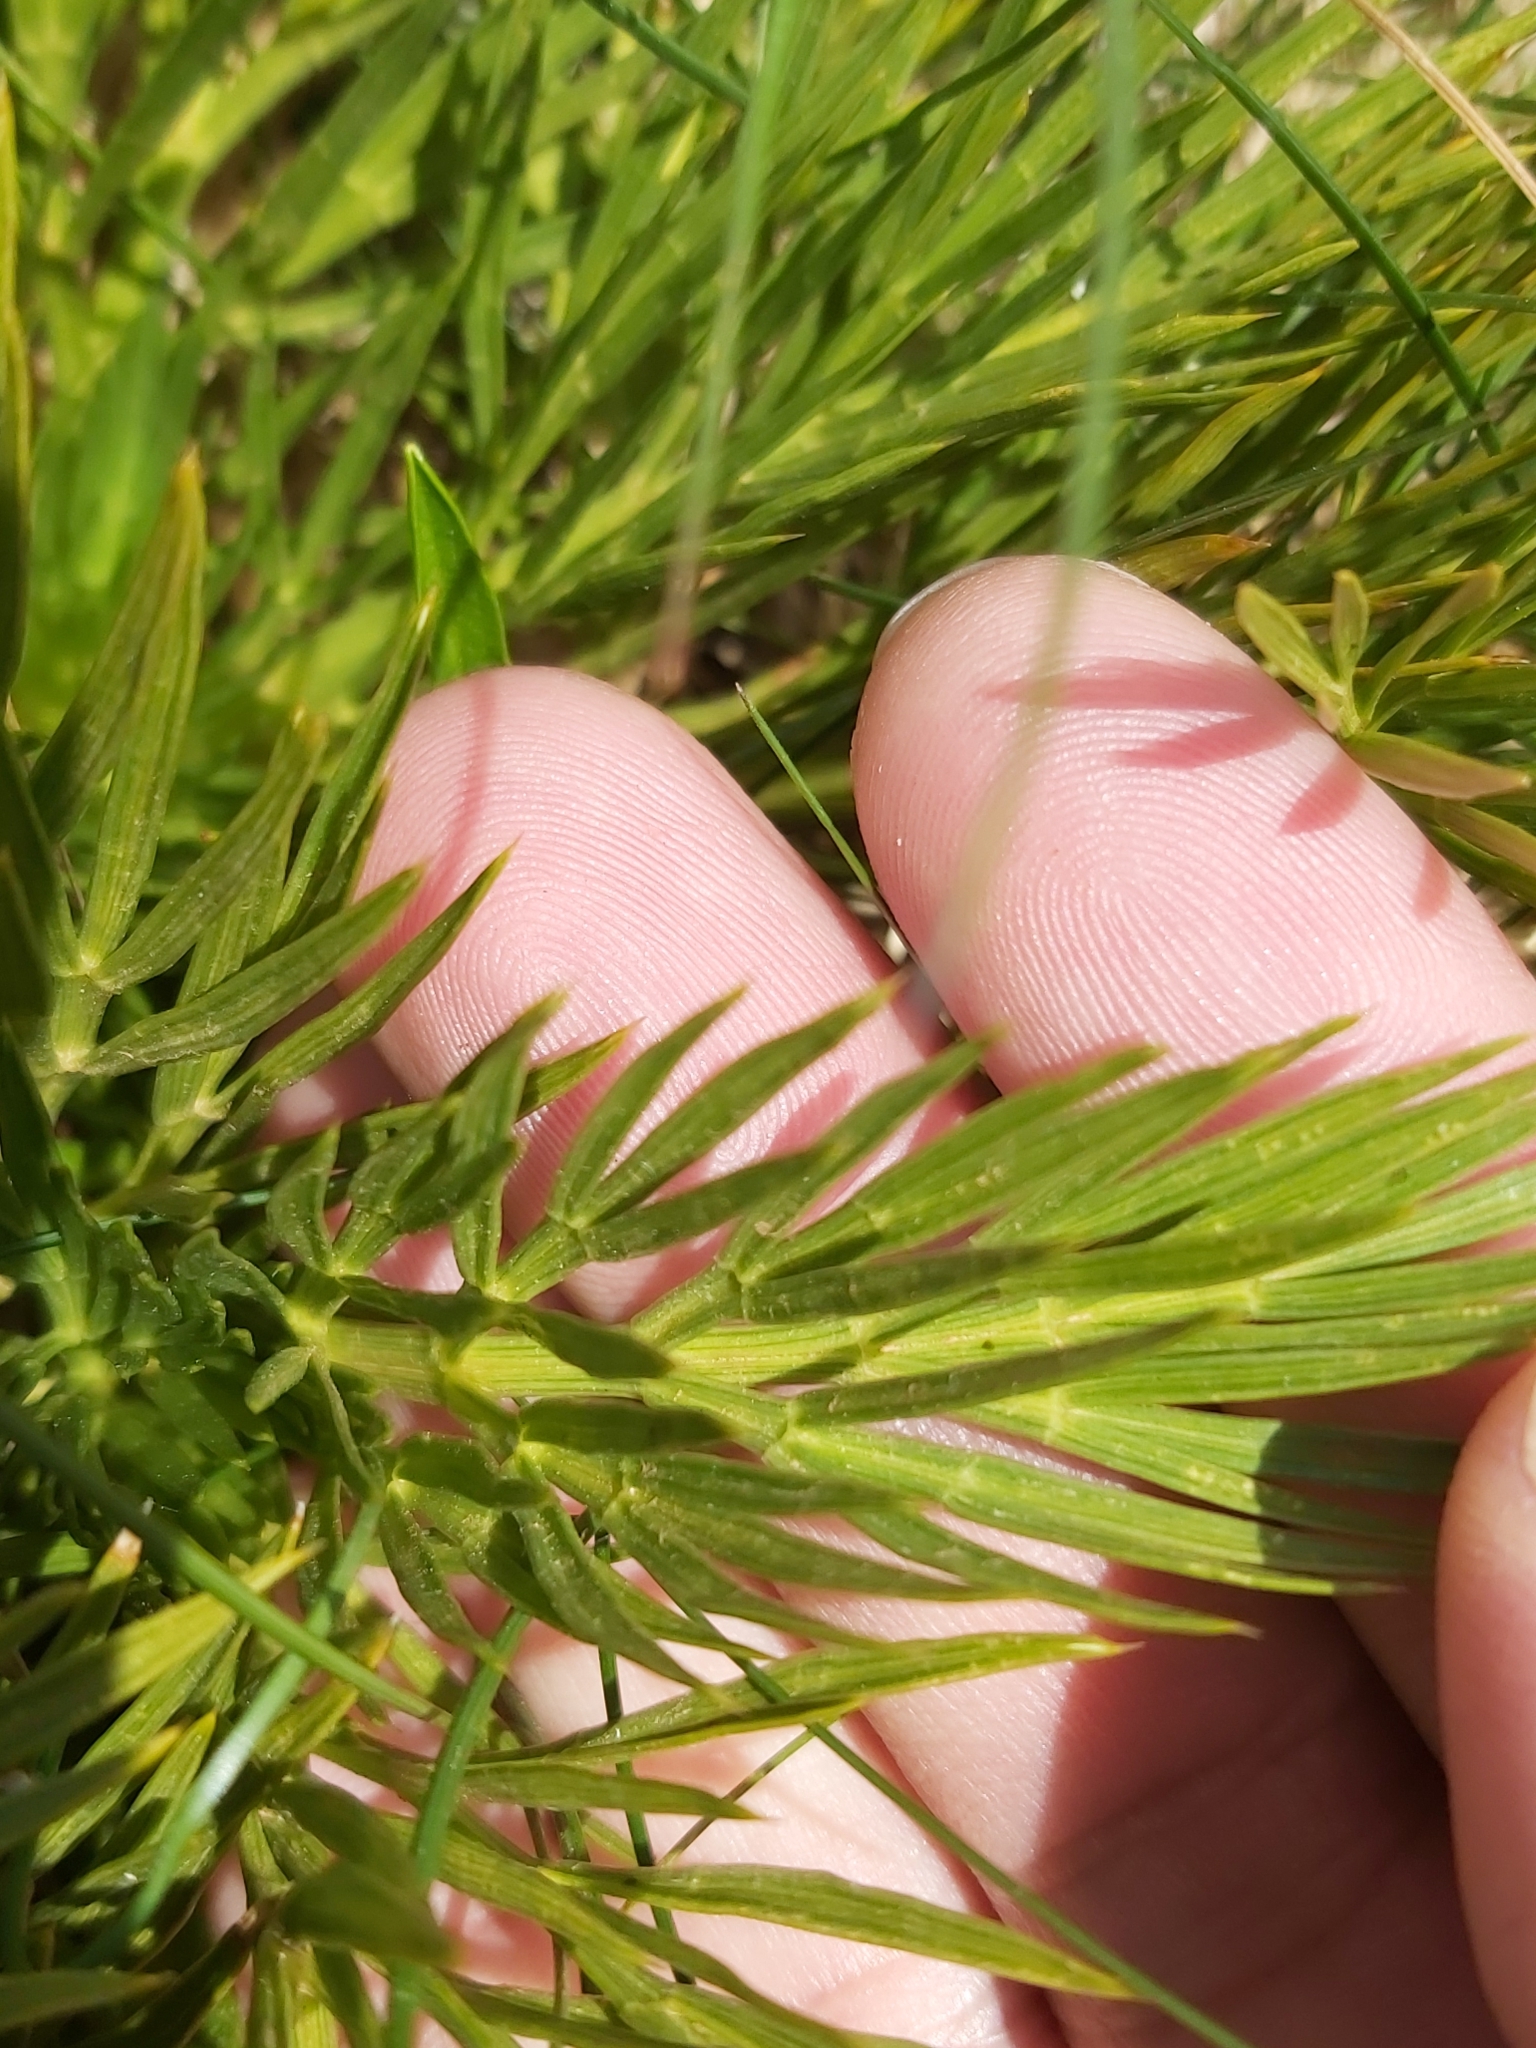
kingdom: Plantae
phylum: Tracheophyta
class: Magnoliopsida
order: Apiales
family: Apiaceae
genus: Aciphylla
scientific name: Aciphylla glacialis
